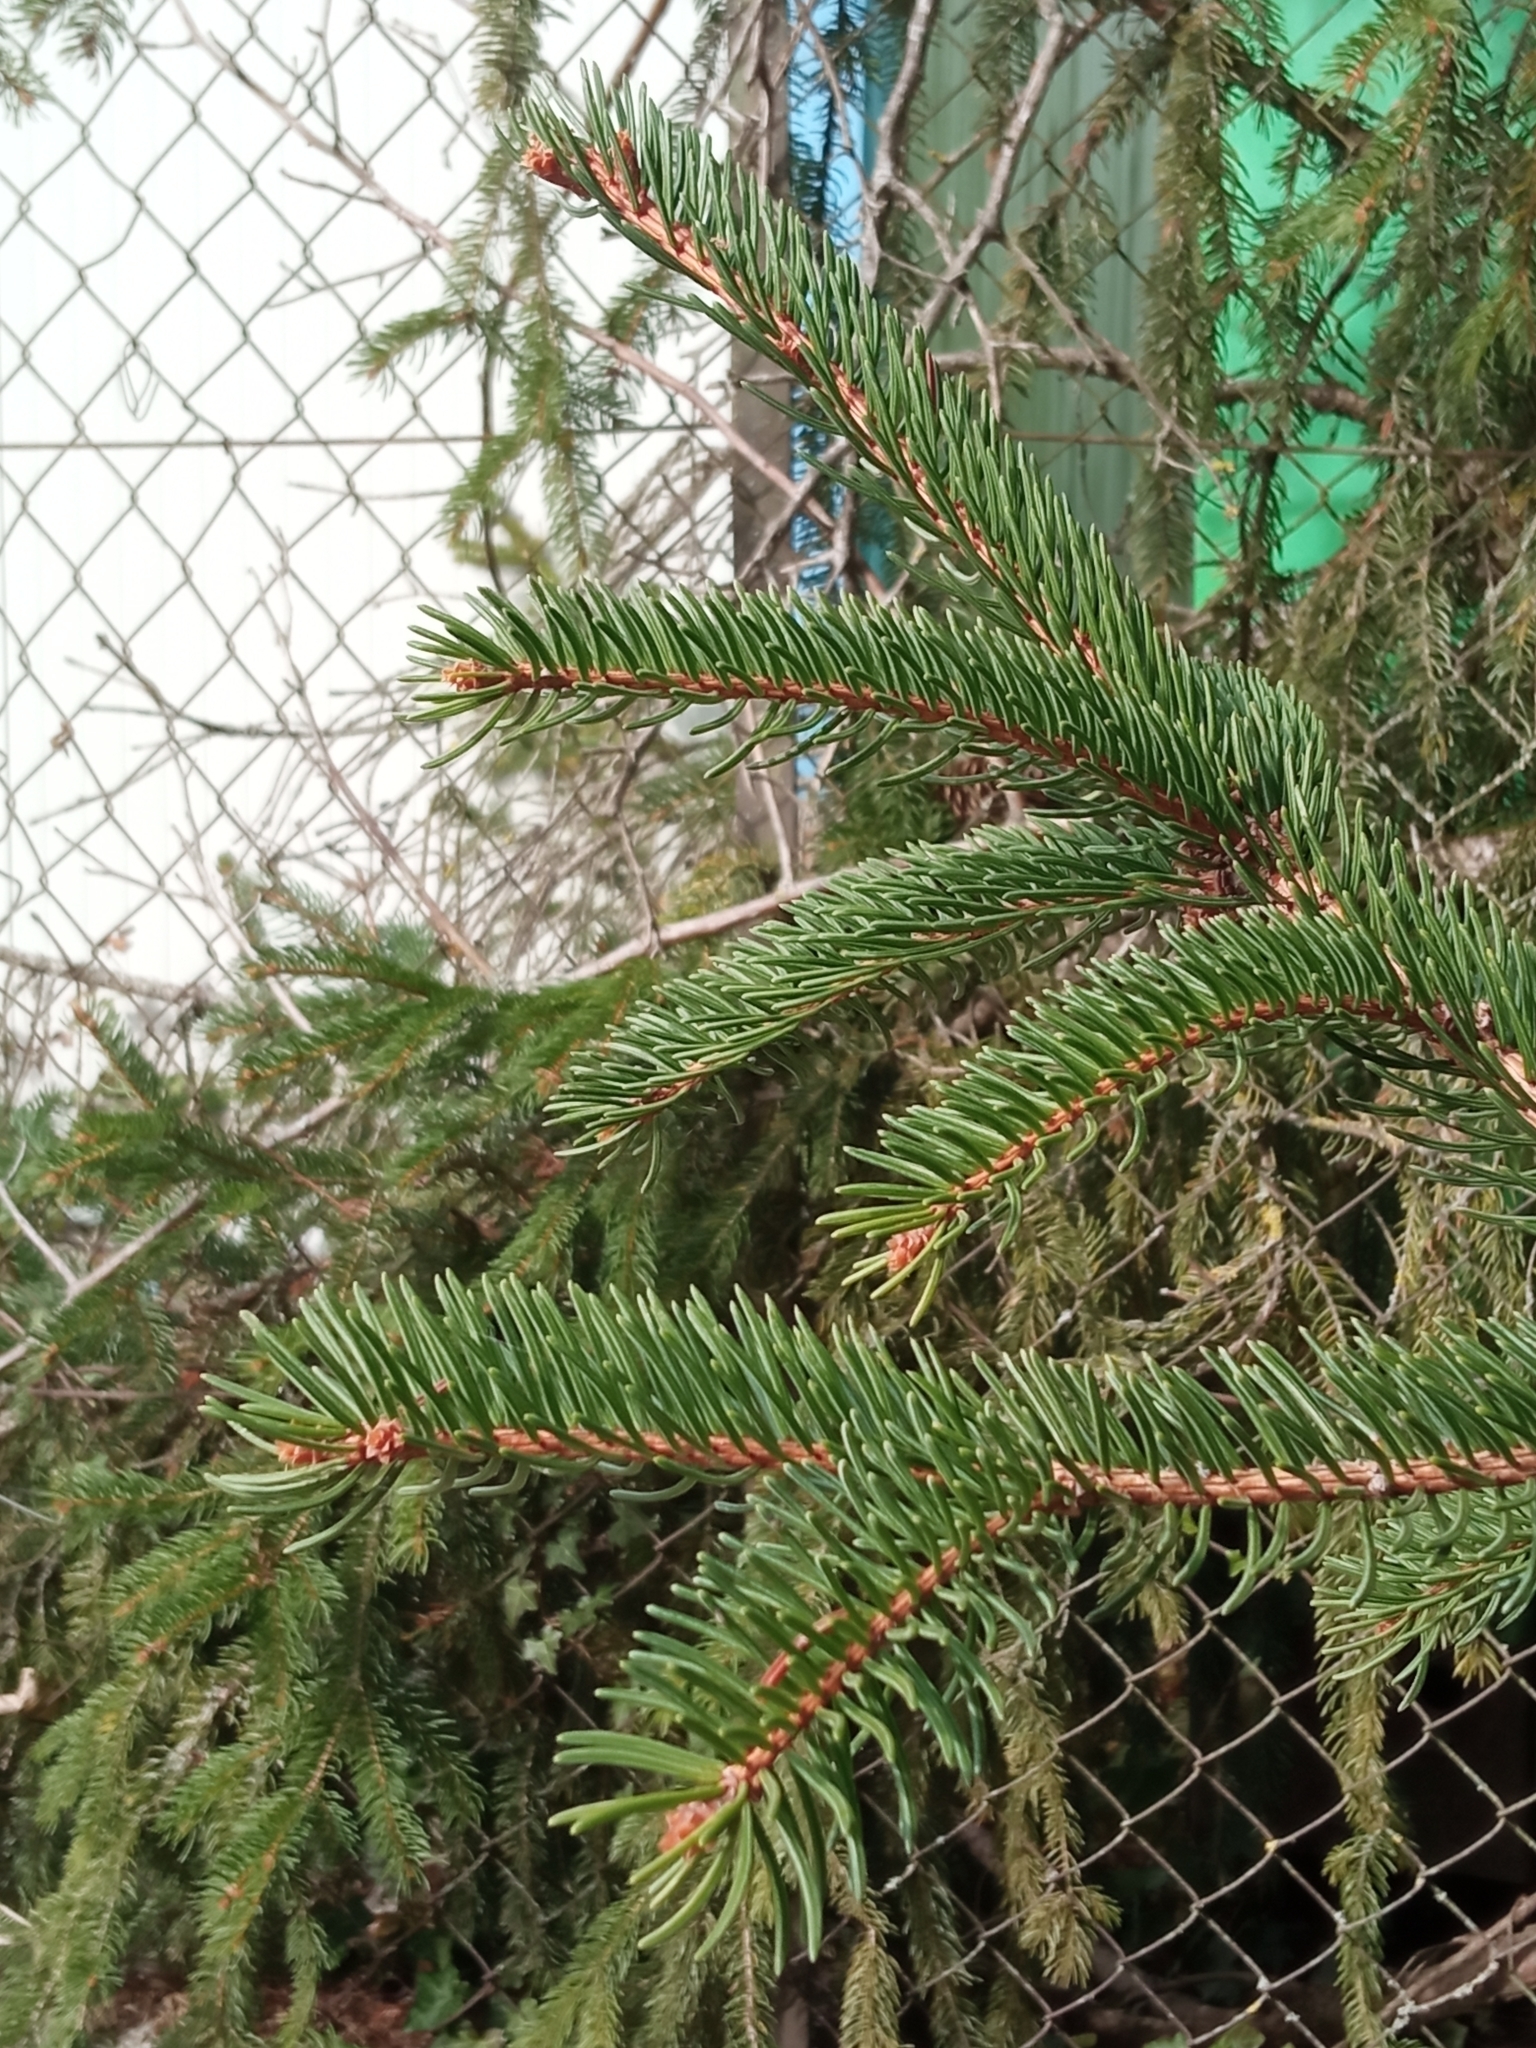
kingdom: Plantae
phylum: Tracheophyta
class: Pinopsida
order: Pinales
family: Pinaceae
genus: Picea
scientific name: Picea abies
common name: Norway spruce
